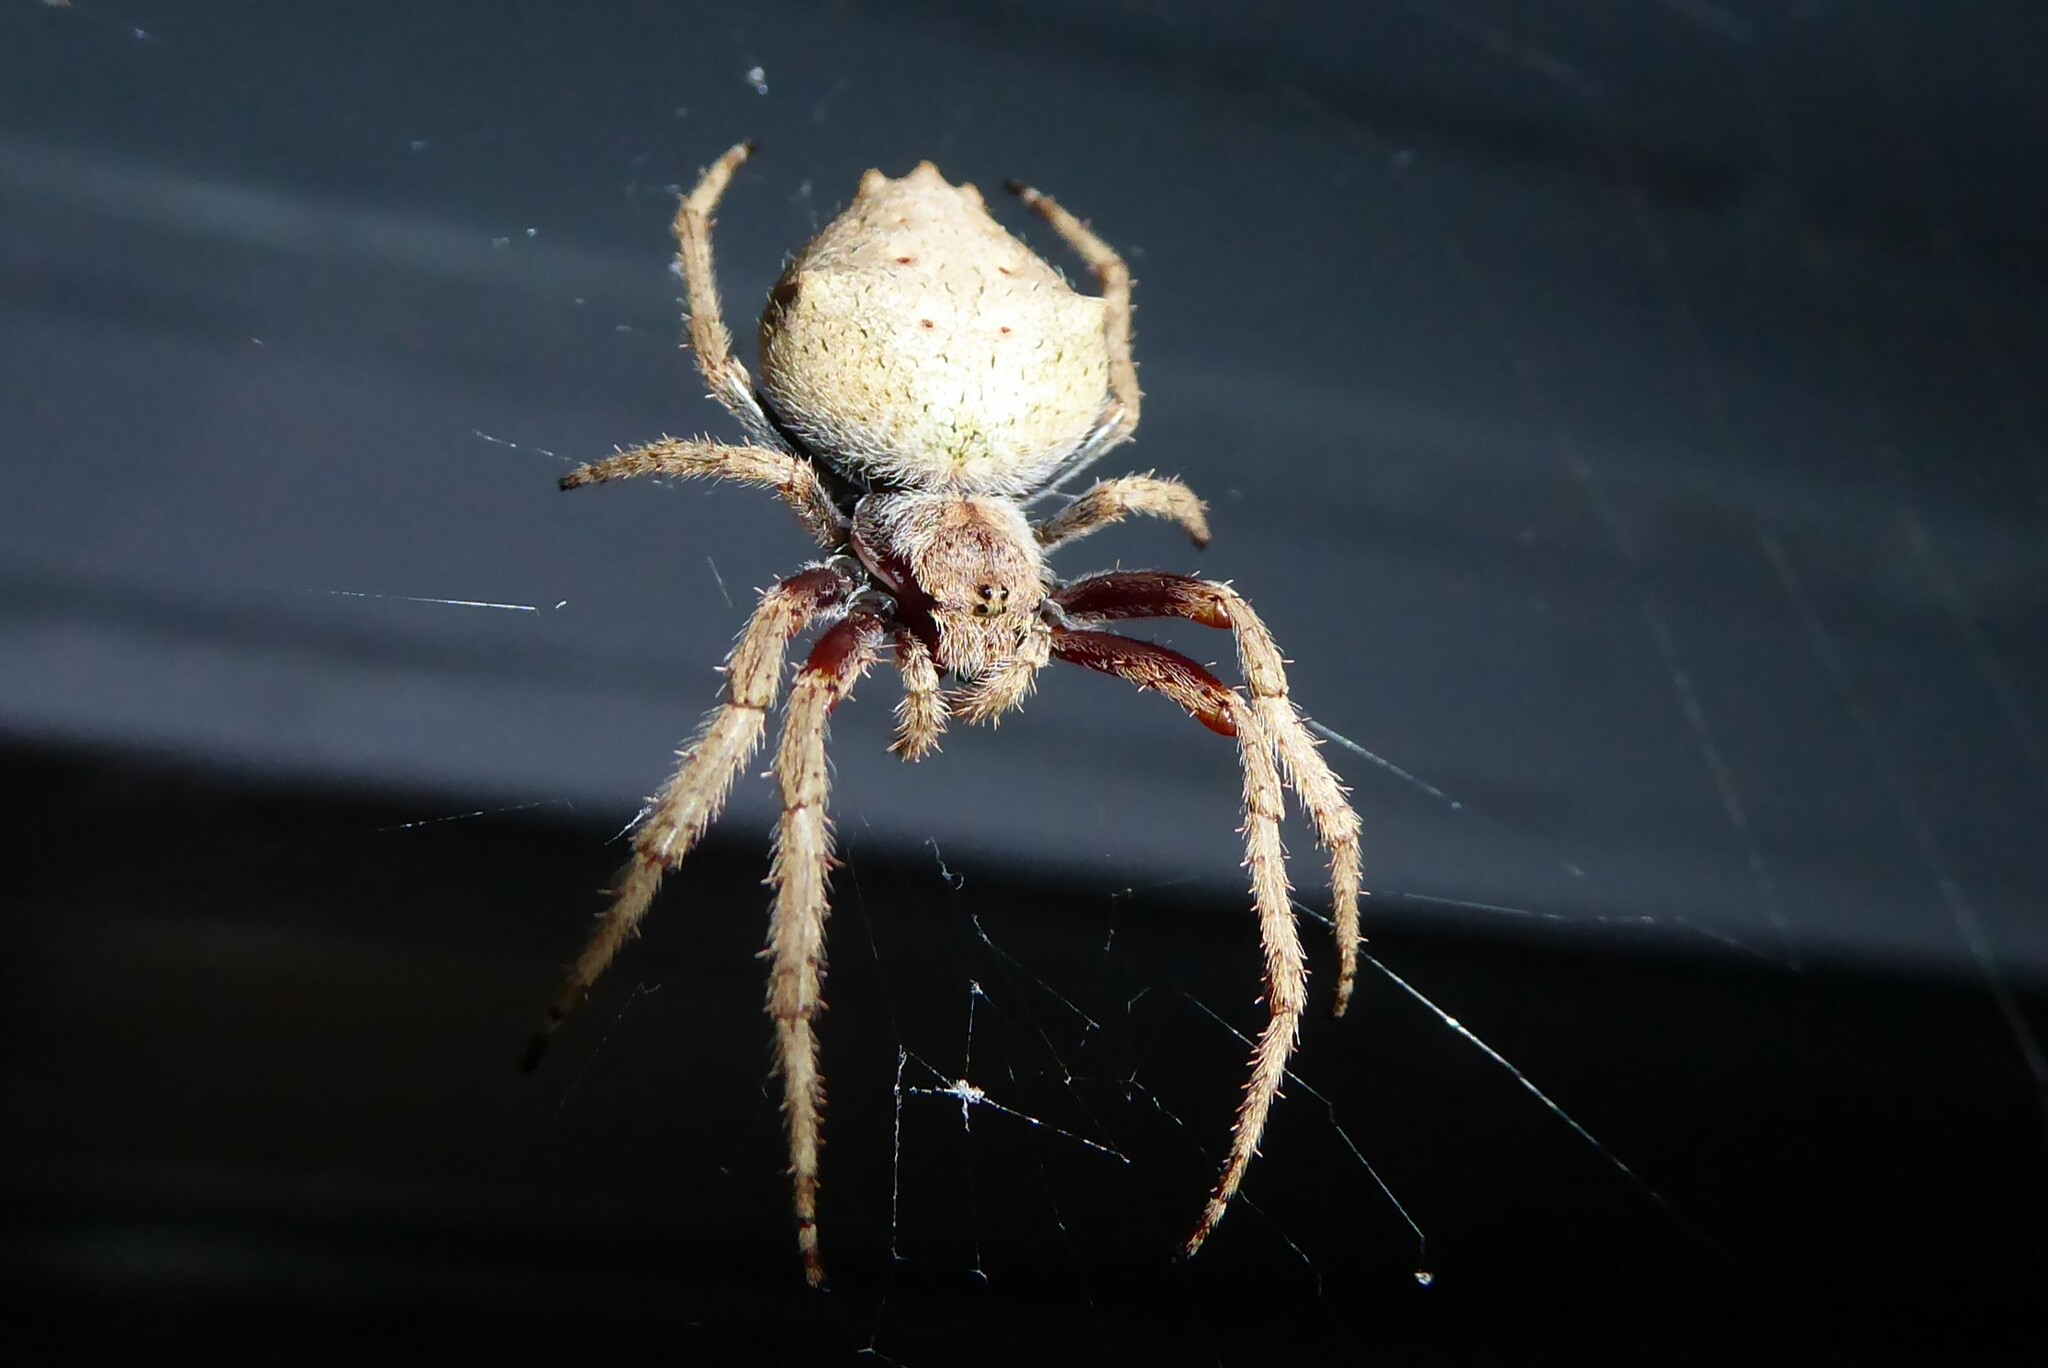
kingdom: Animalia
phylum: Arthropoda
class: Arachnida
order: Araneae
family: Araneidae
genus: Eriophora
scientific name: Eriophora pustulosa
